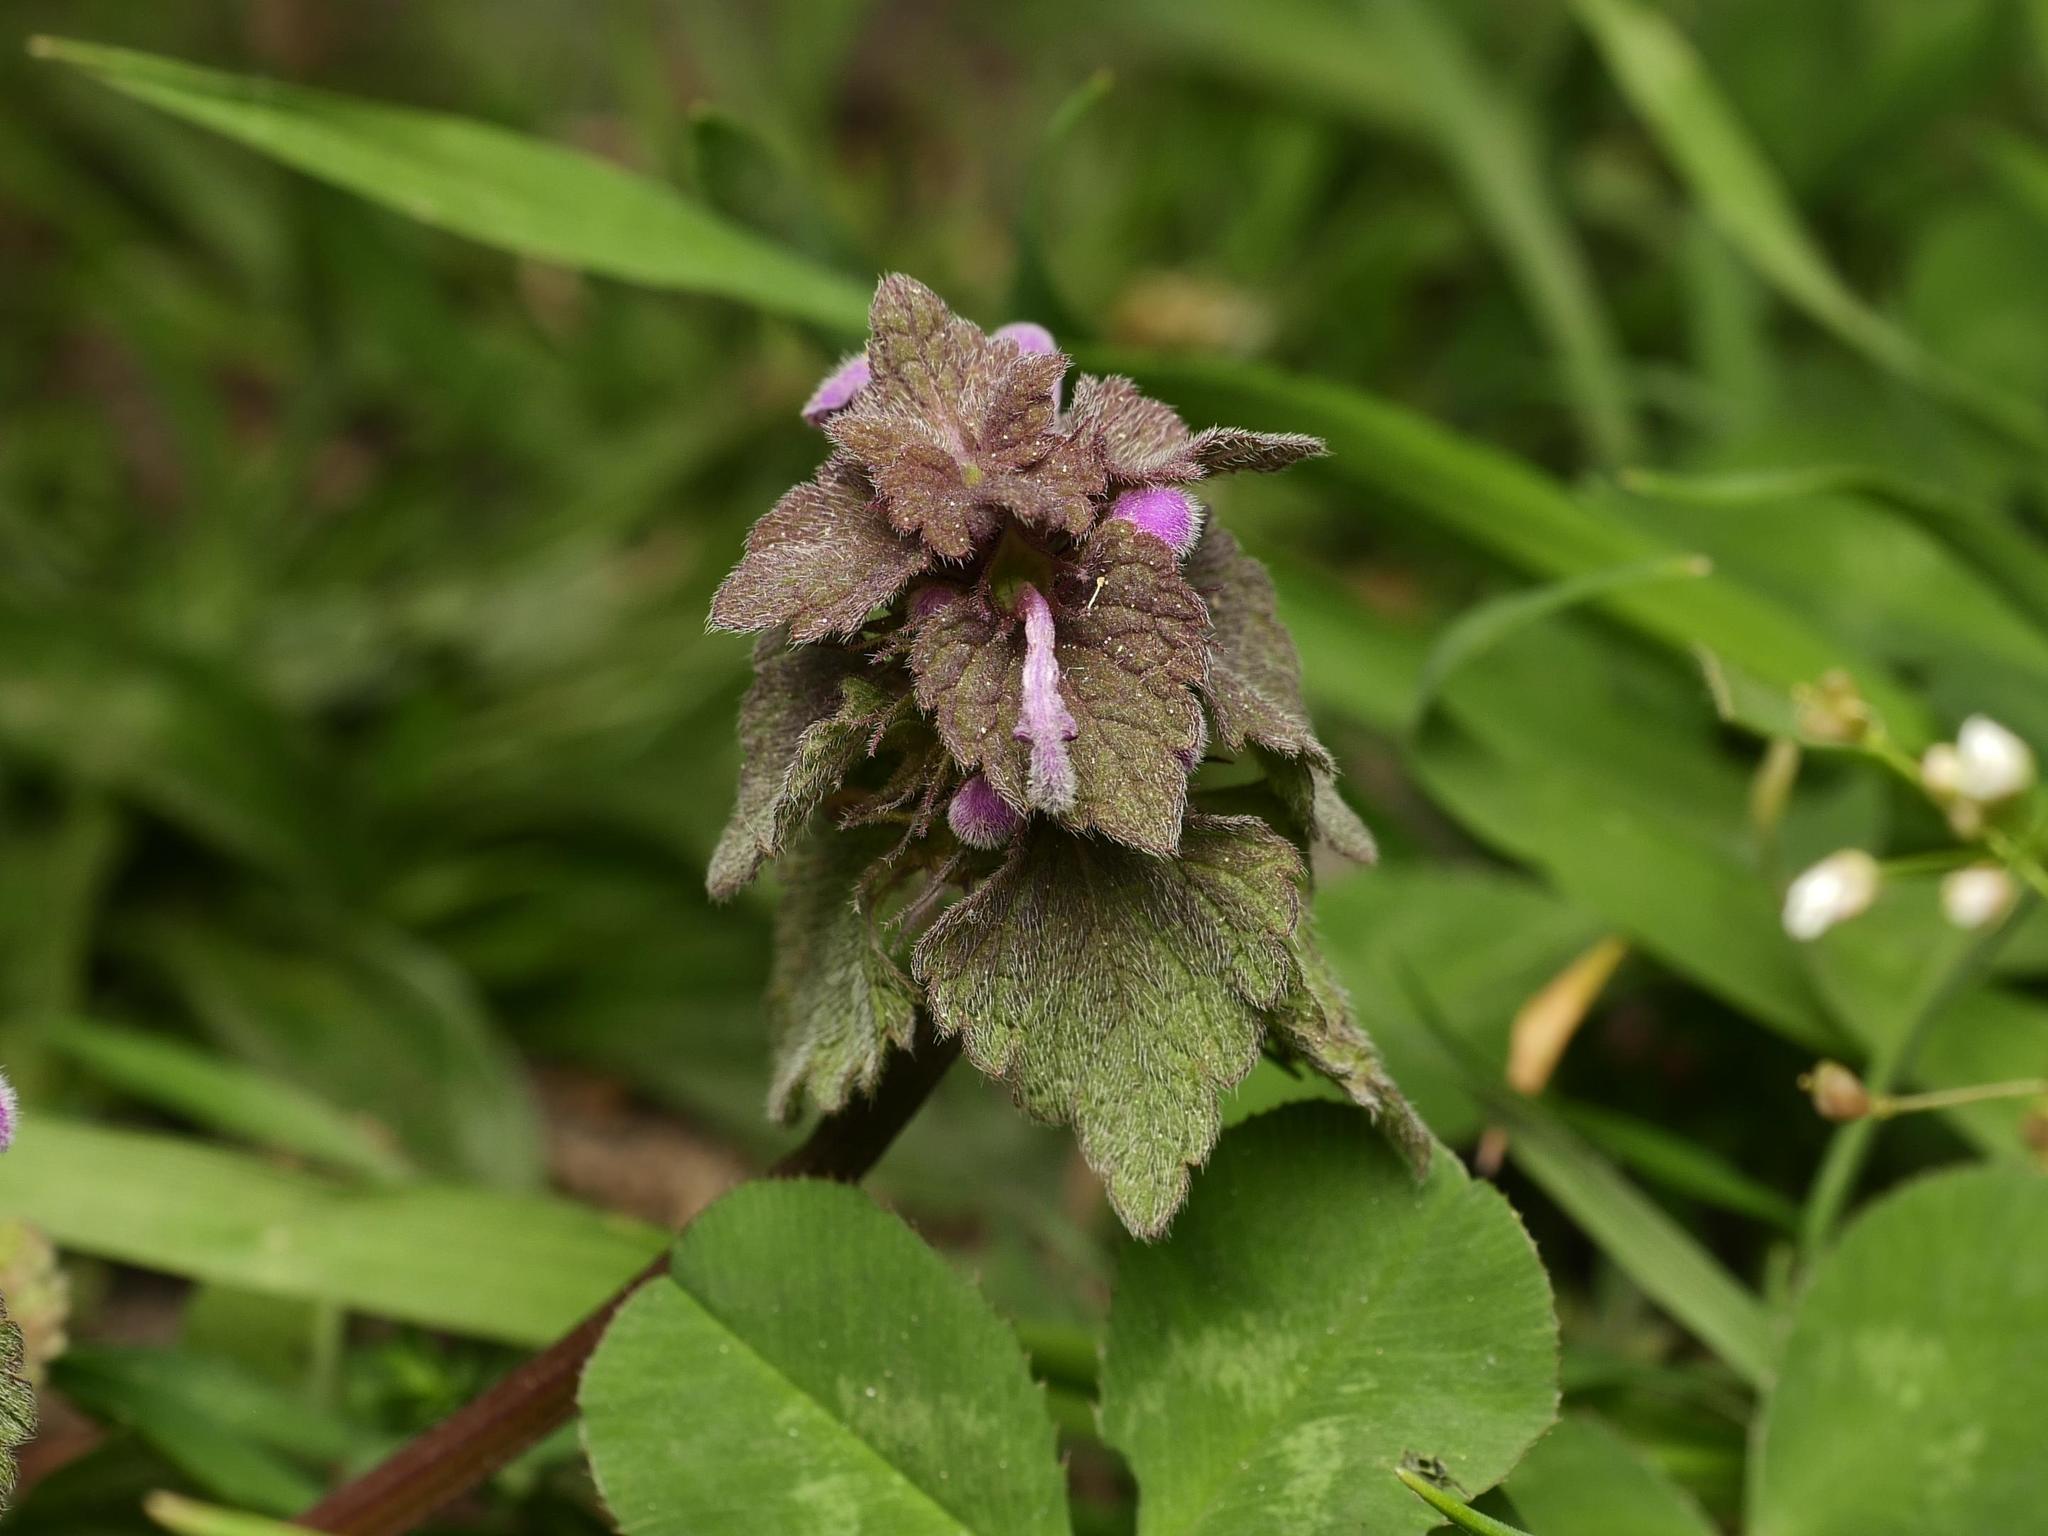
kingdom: Plantae
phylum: Tracheophyta
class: Magnoliopsida
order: Lamiales
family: Lamiaceae
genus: Lamium
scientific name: Lamium purpureum
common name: Red dead-nettle
